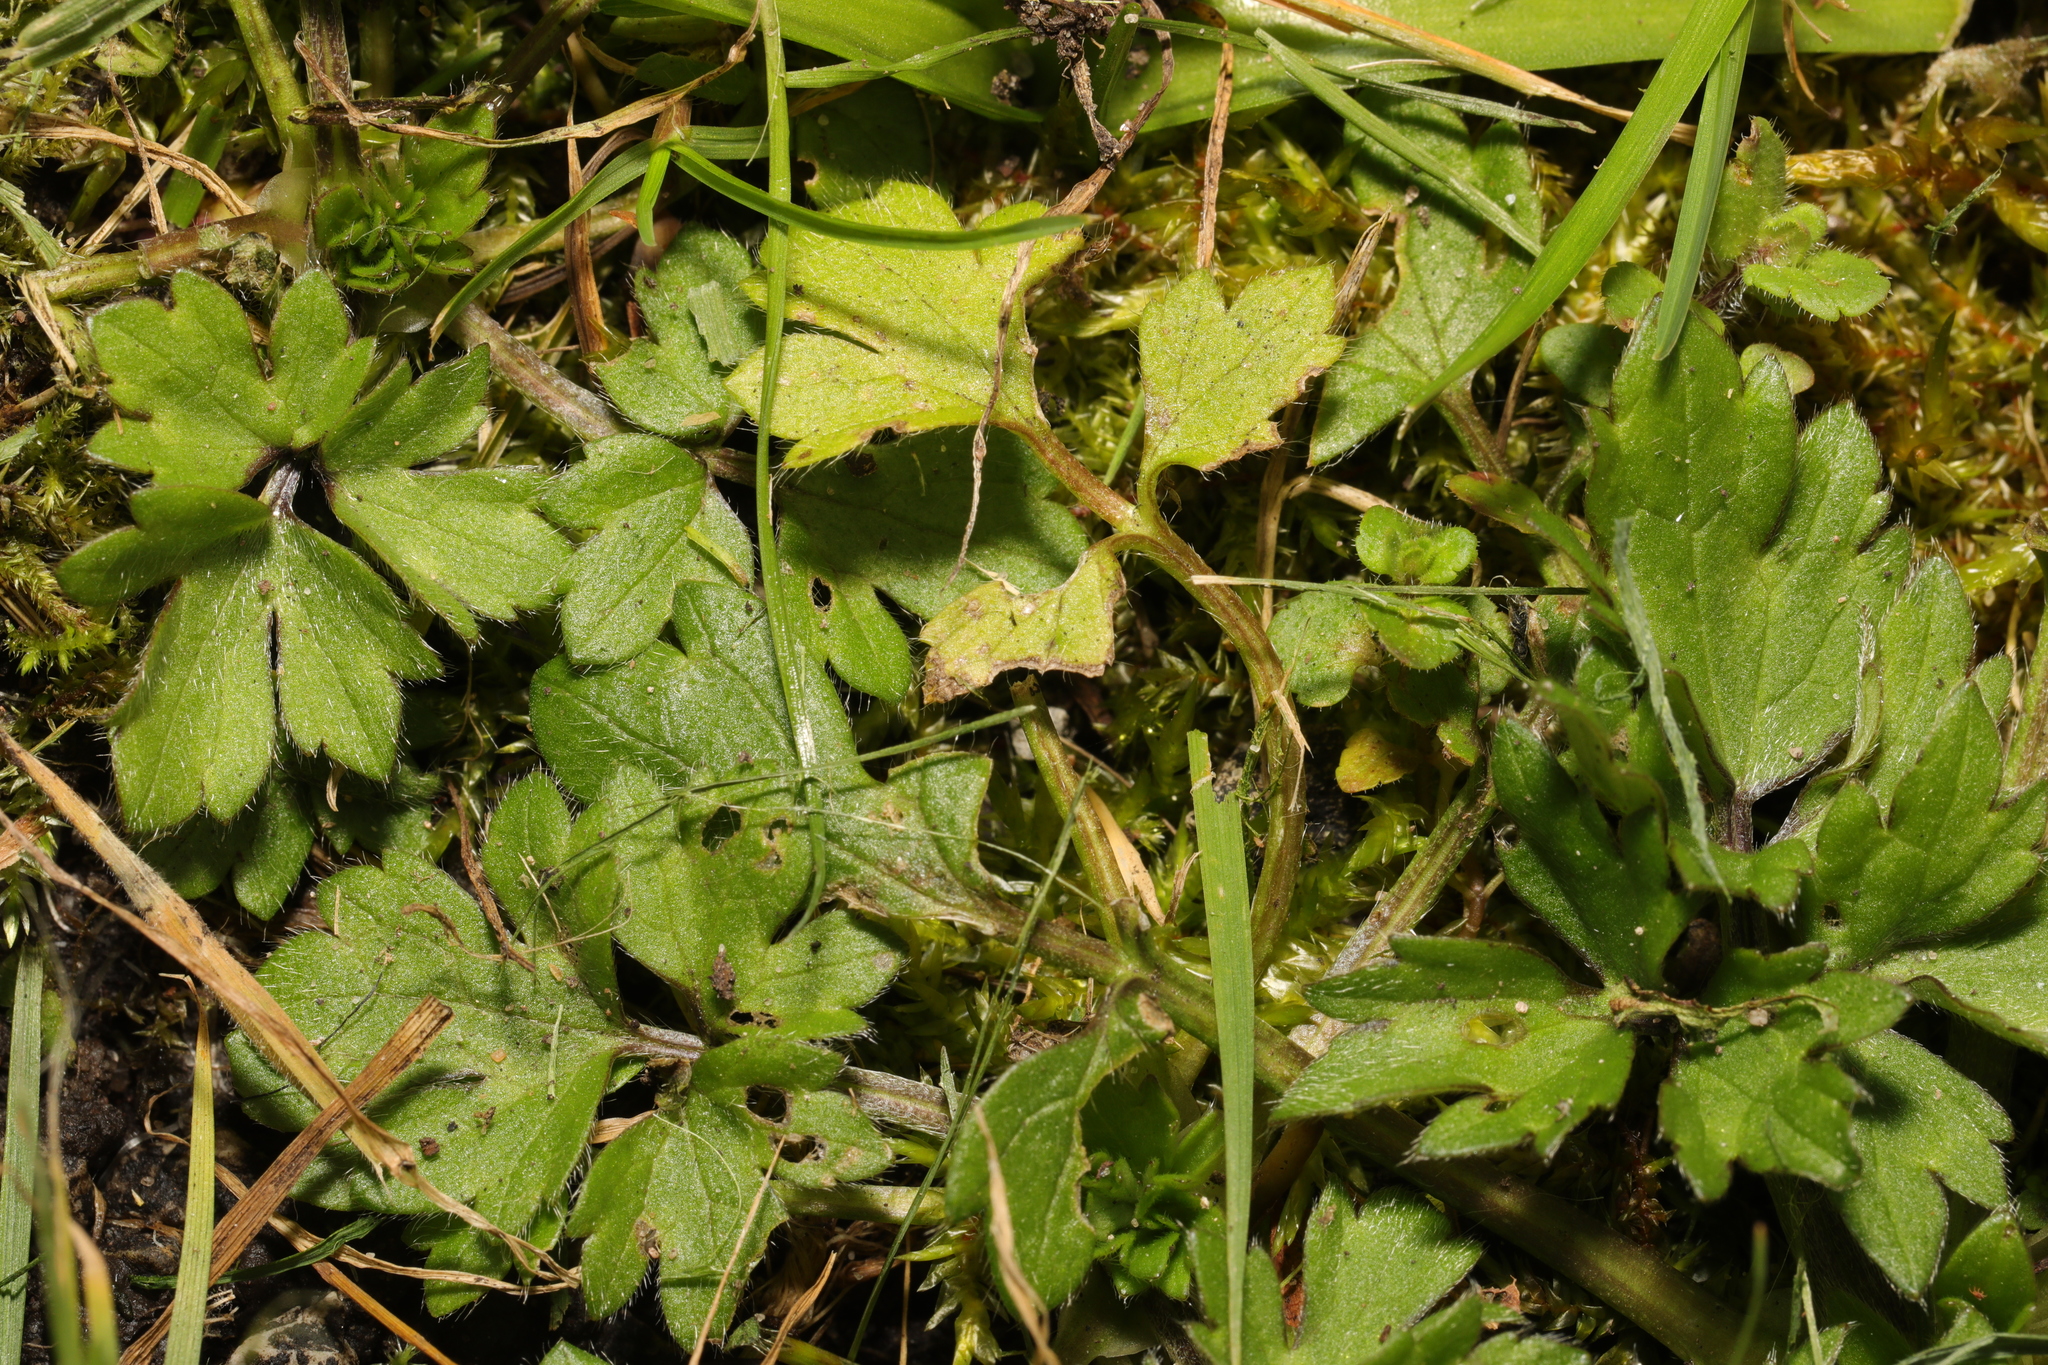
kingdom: Plantae
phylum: Tracheophyta
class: Magnoliopsida
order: Ranunculales
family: Ranunculaceae
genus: Ranunculus
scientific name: Ranunculus repens
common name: Creeping buttercup
